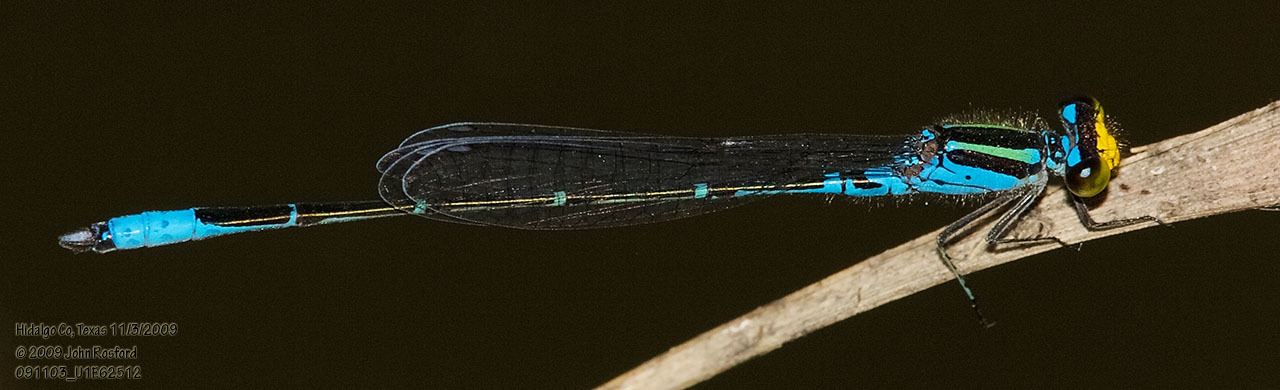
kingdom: Animalia
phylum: Arthropoda
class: Insecta
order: Odonata
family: Coenagrionidae
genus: Neoerythromma
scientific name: Neoerythromma cultellatum
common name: Caribbean yellowface
